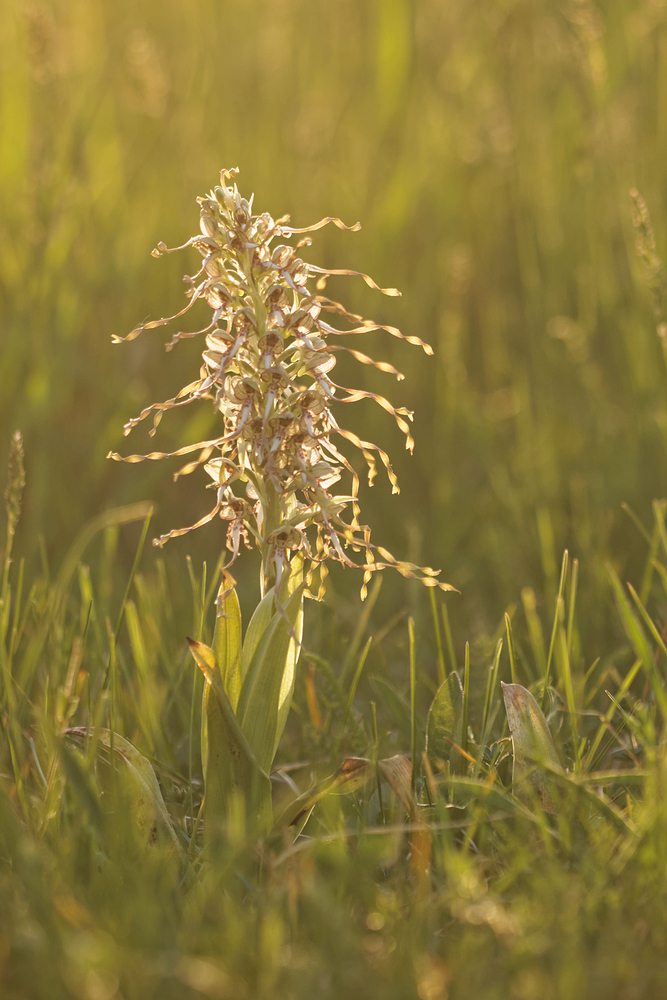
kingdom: Plantae
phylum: Tracheophyta
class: Liliopsida
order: Asparagales
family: Orchidaceae
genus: Himantoglossum
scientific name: Himantoglossum hircinum
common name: Lizard orchid
